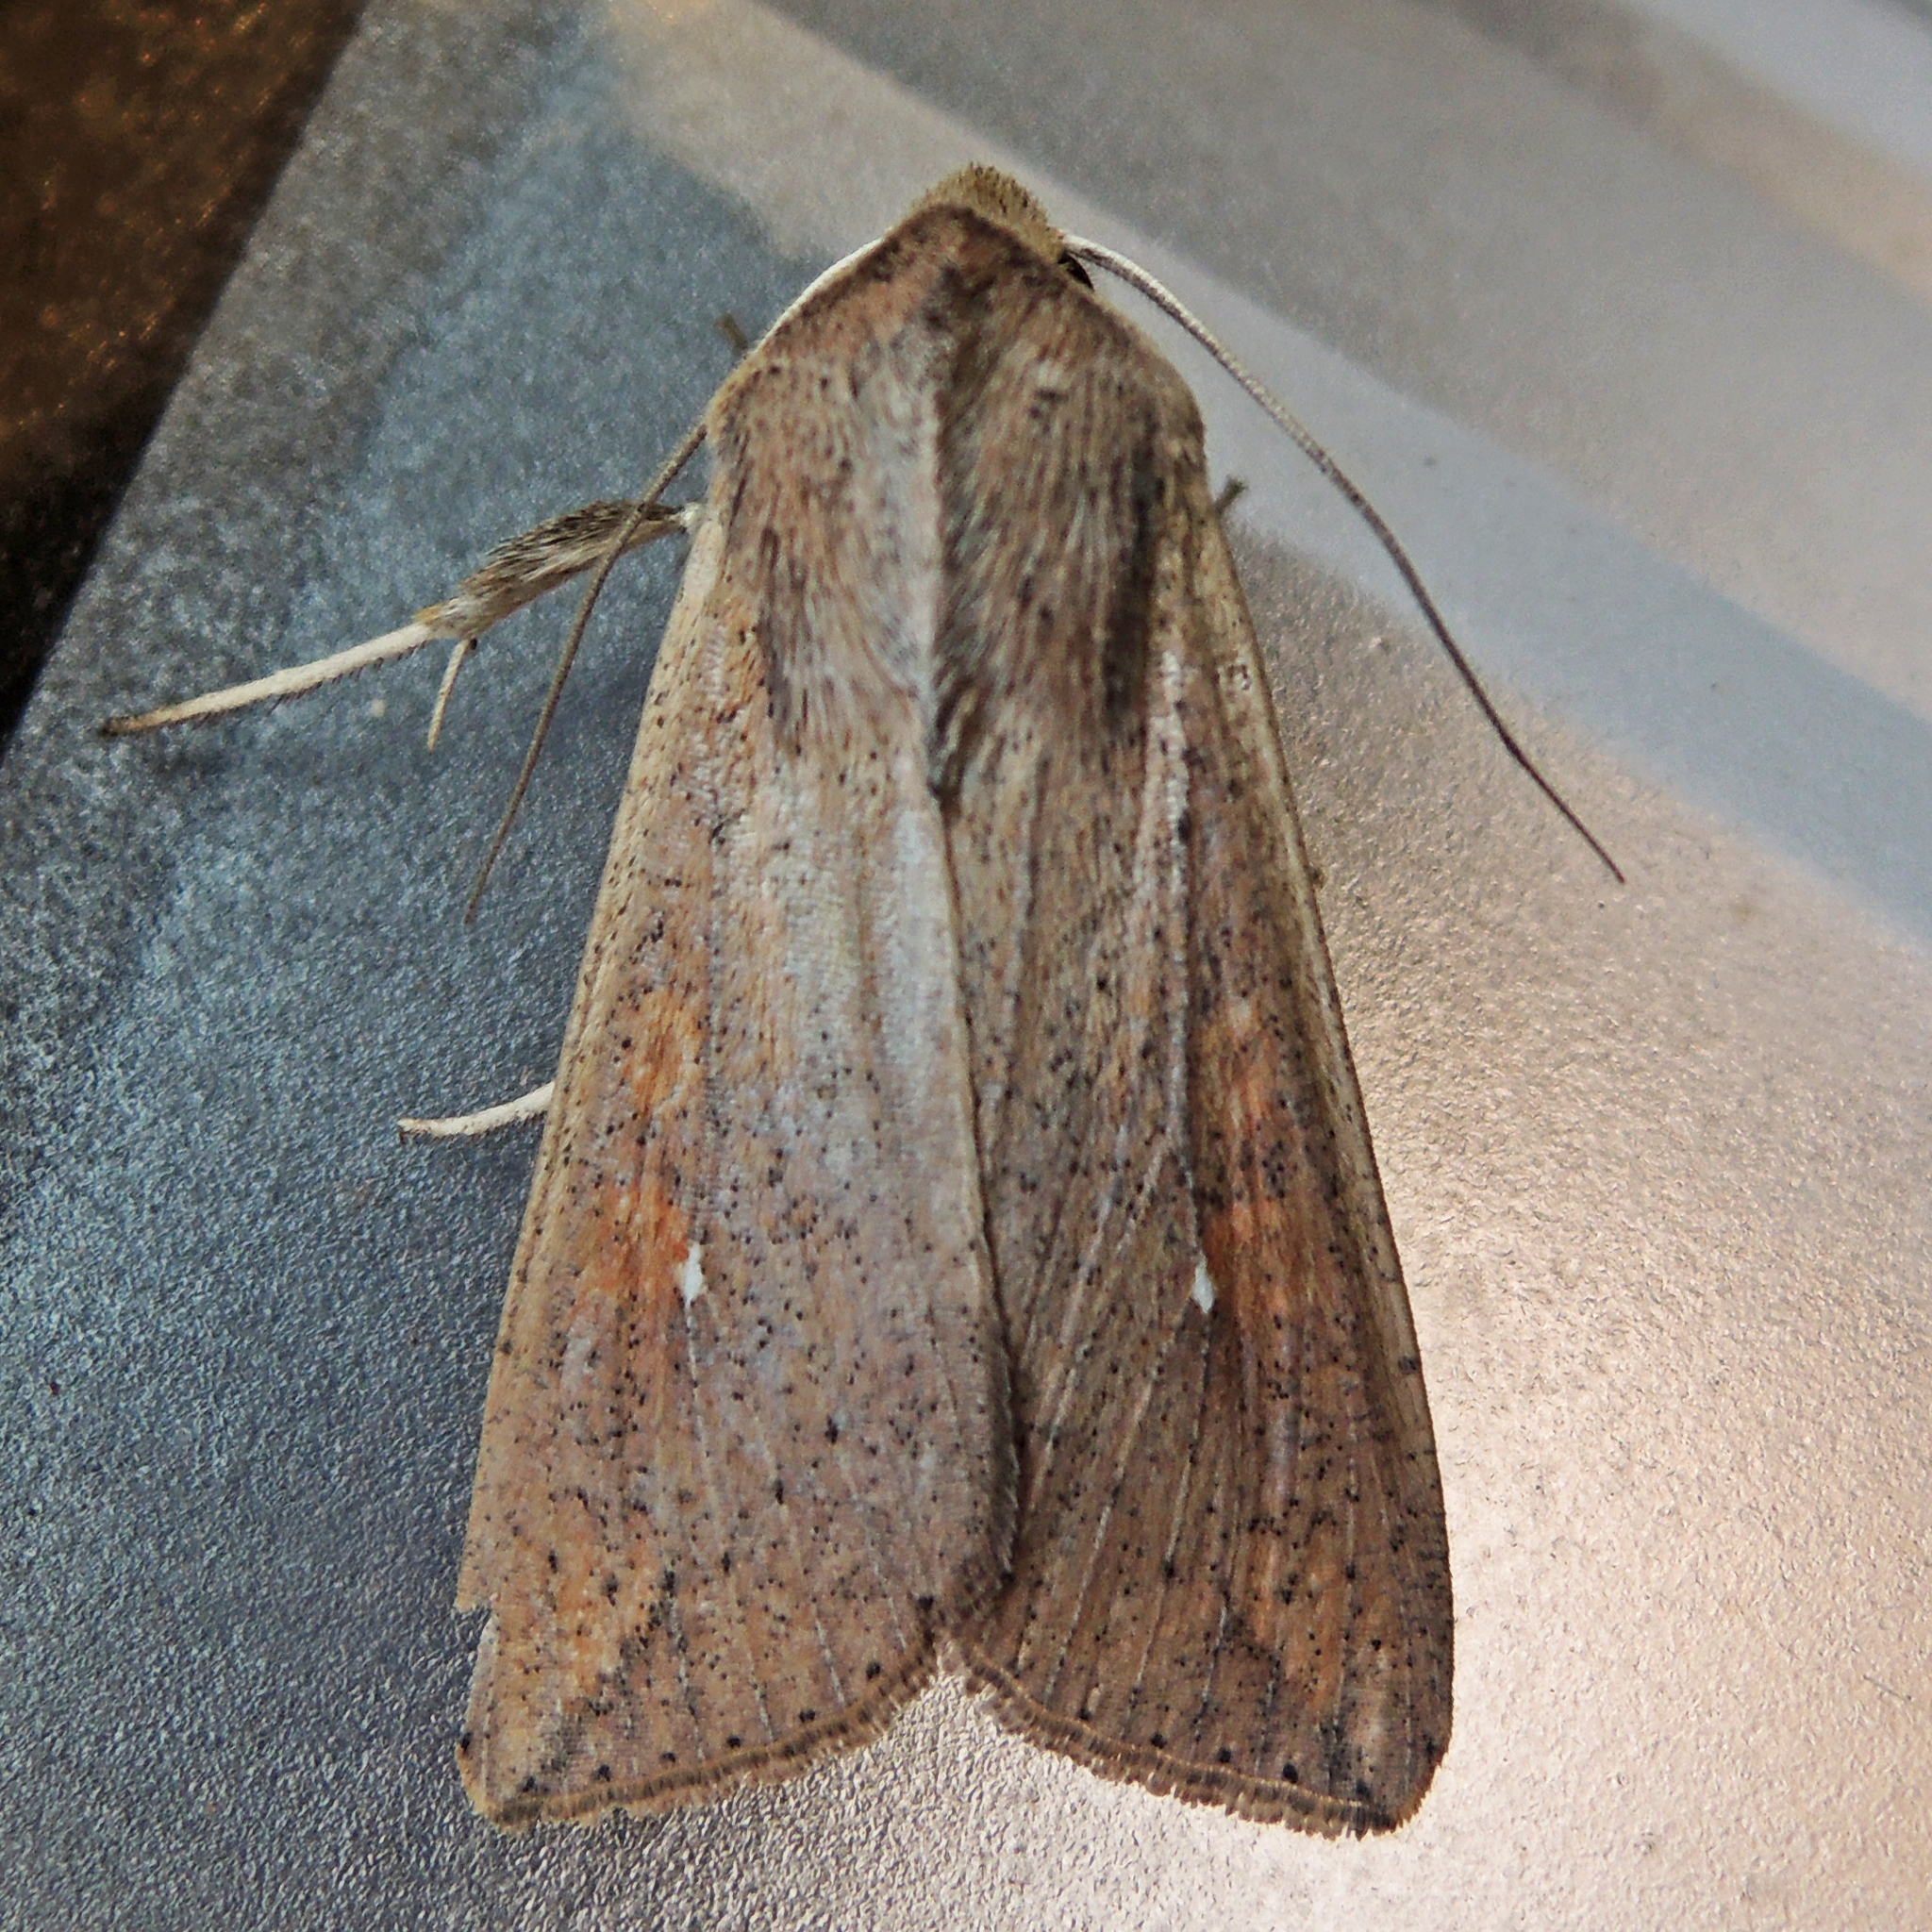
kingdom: Animalia
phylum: Arthropoda
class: Insecta
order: Lepidoptera
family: Noctuidae
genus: Mythimna
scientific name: Mythimna unipuncta
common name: White-speck
